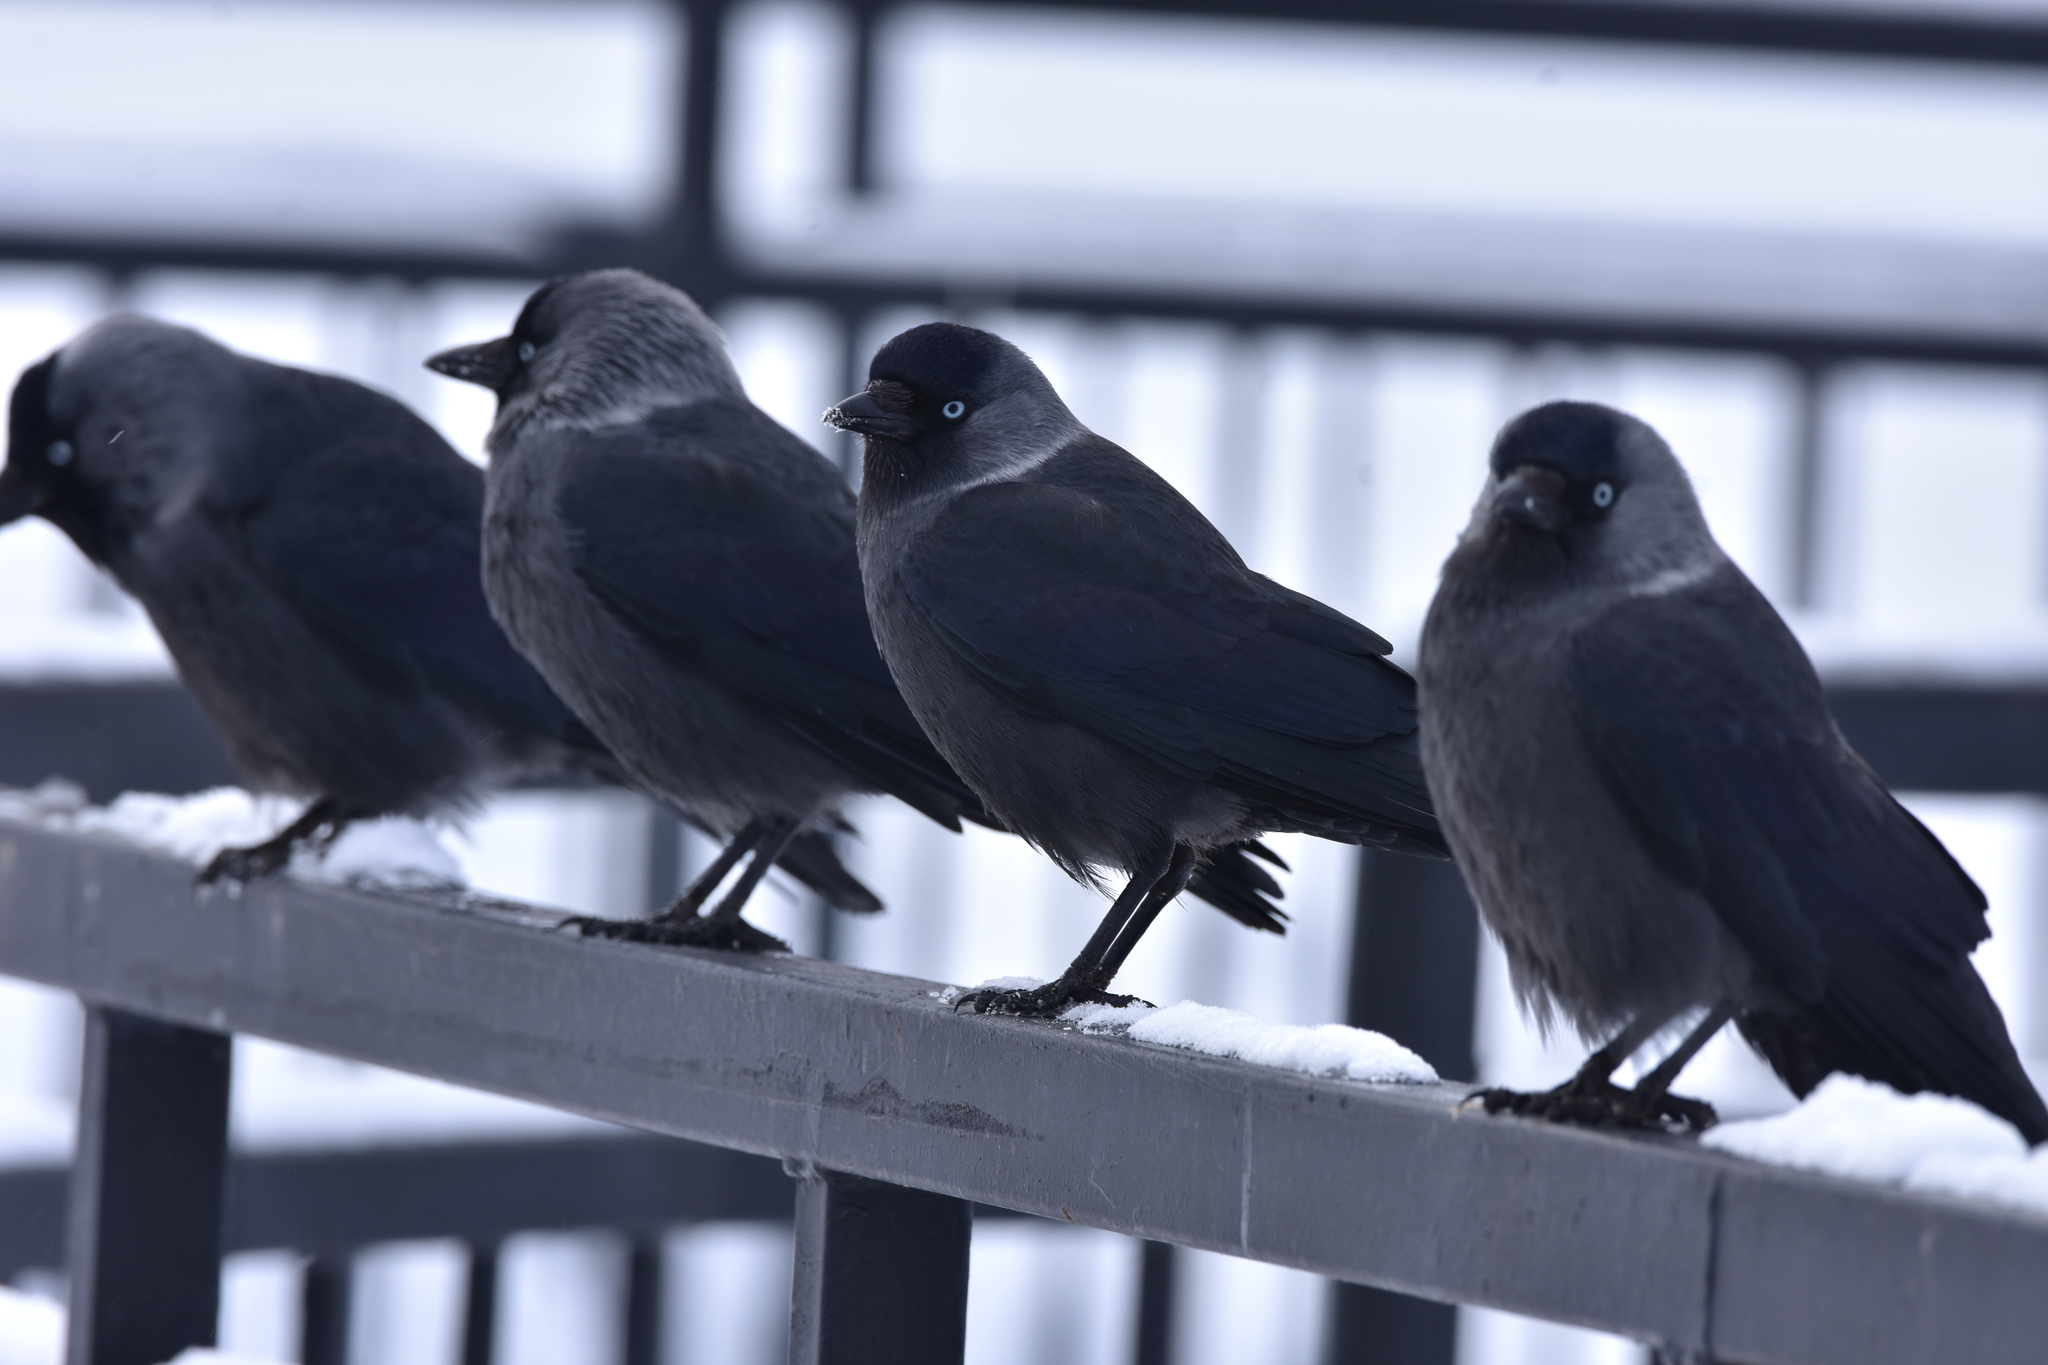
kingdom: Animalia
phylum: Chordata
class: Aves
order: Passeriformes
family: Corvidae
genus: Coloeus
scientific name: Coloeus monedula
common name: Western jackdaw
